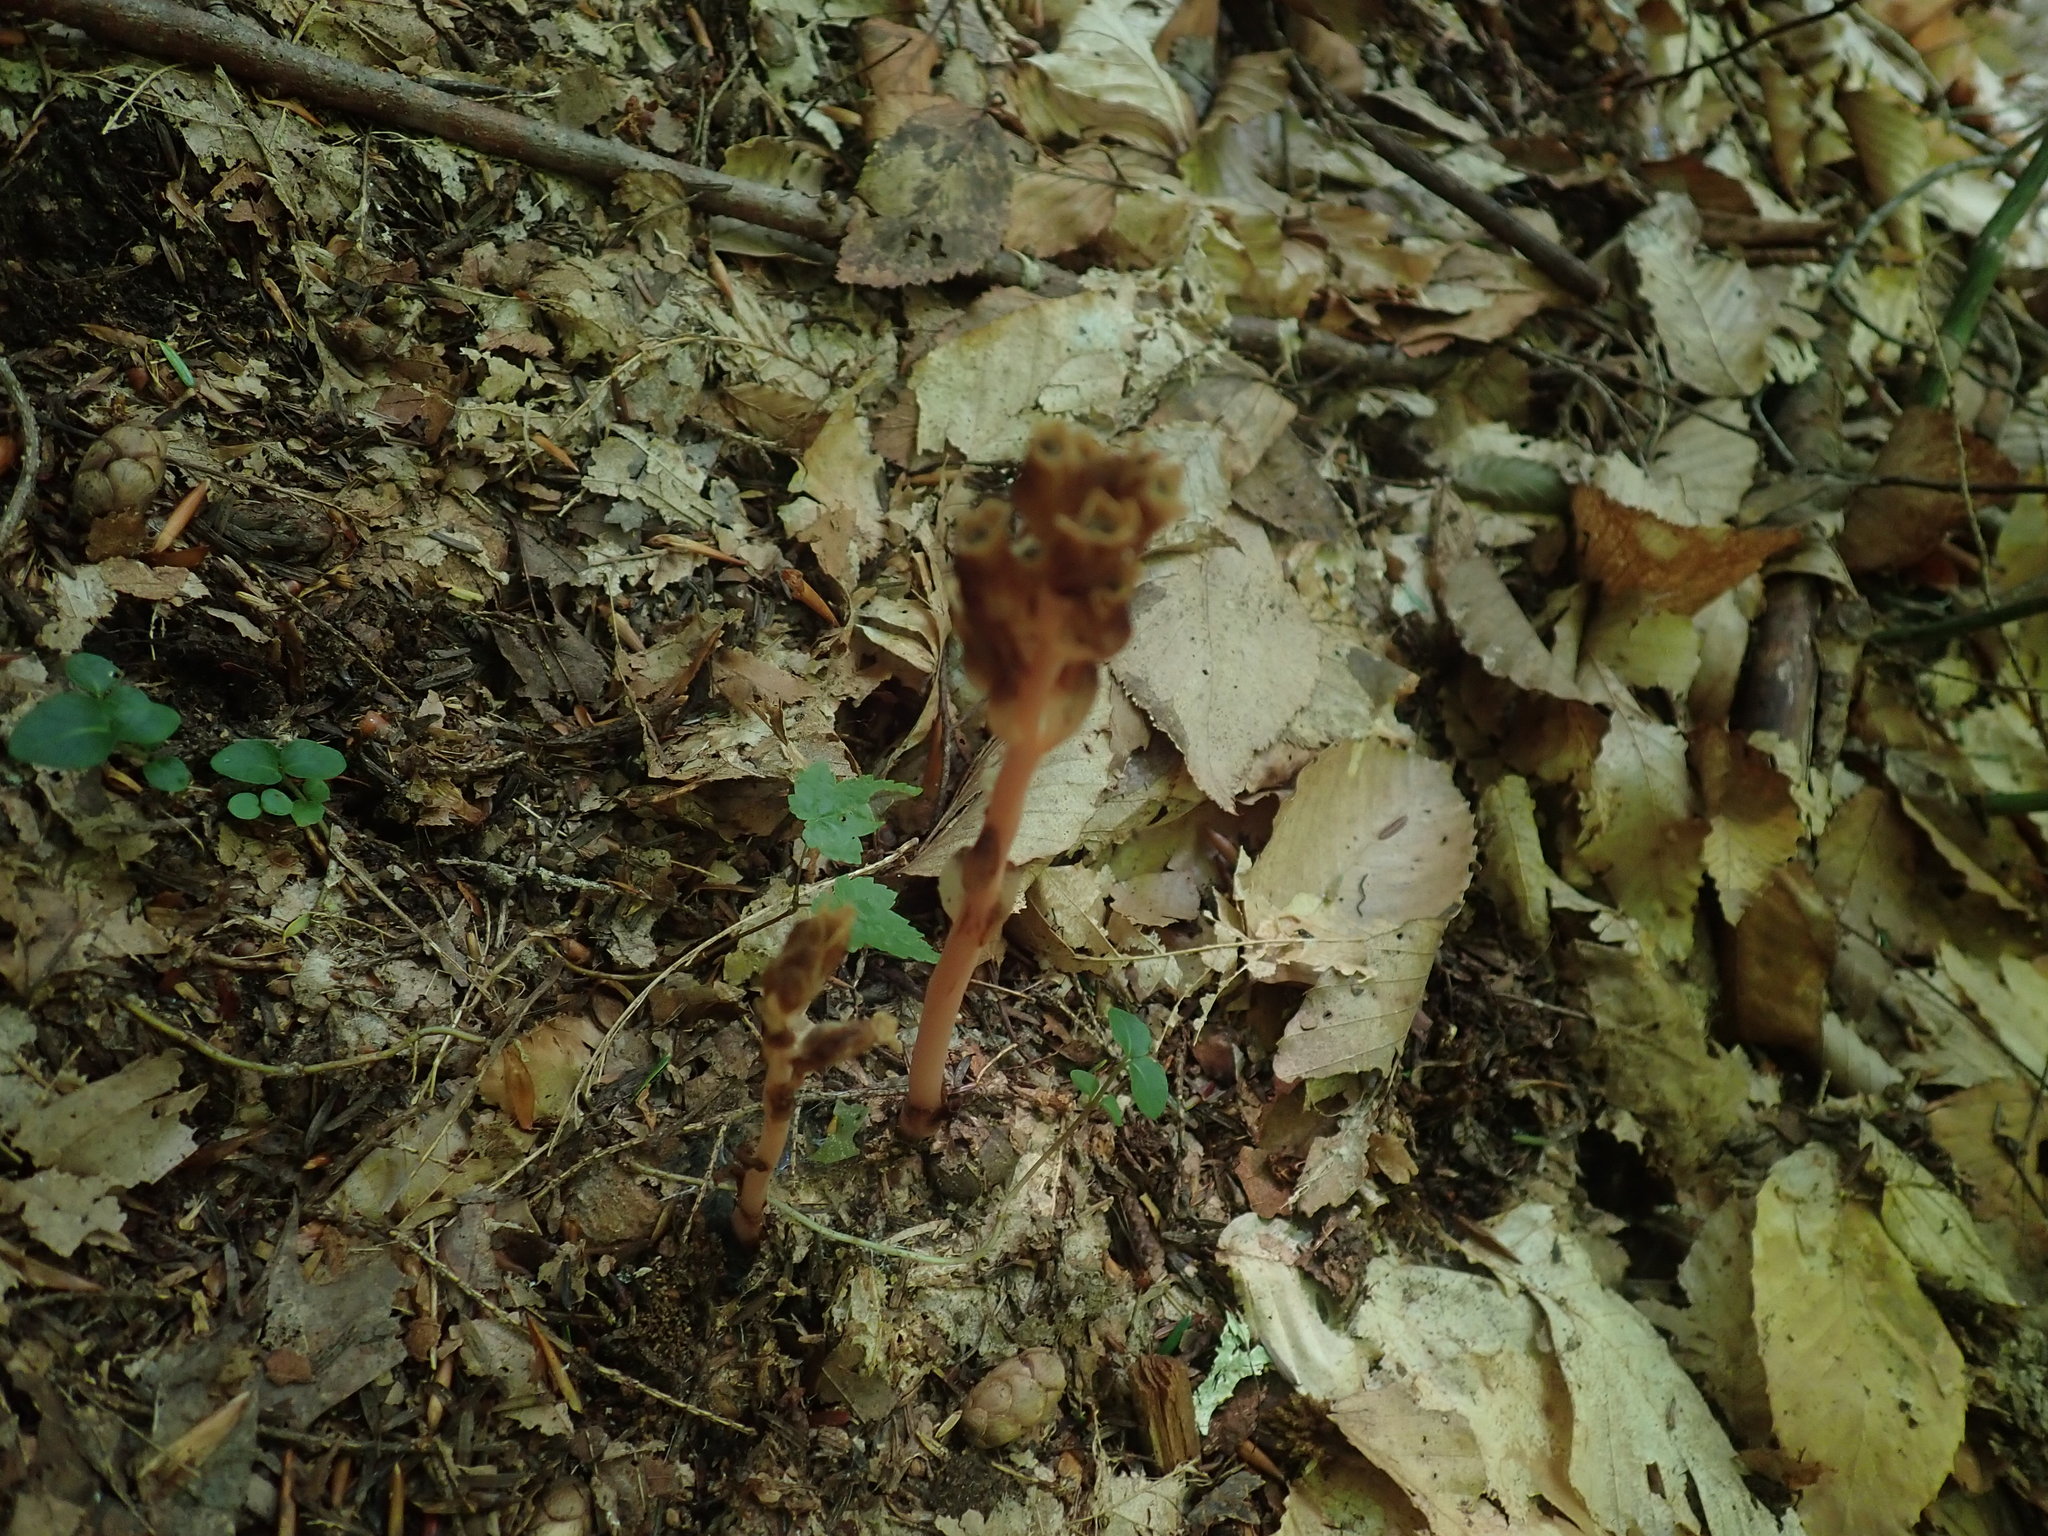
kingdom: Plantae
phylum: Tracheophyta
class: Magnoliopsida
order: Ericales
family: Ericaceae
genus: Hypopitys
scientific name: Hypopitys monotropa
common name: Yellow bird's-nest
